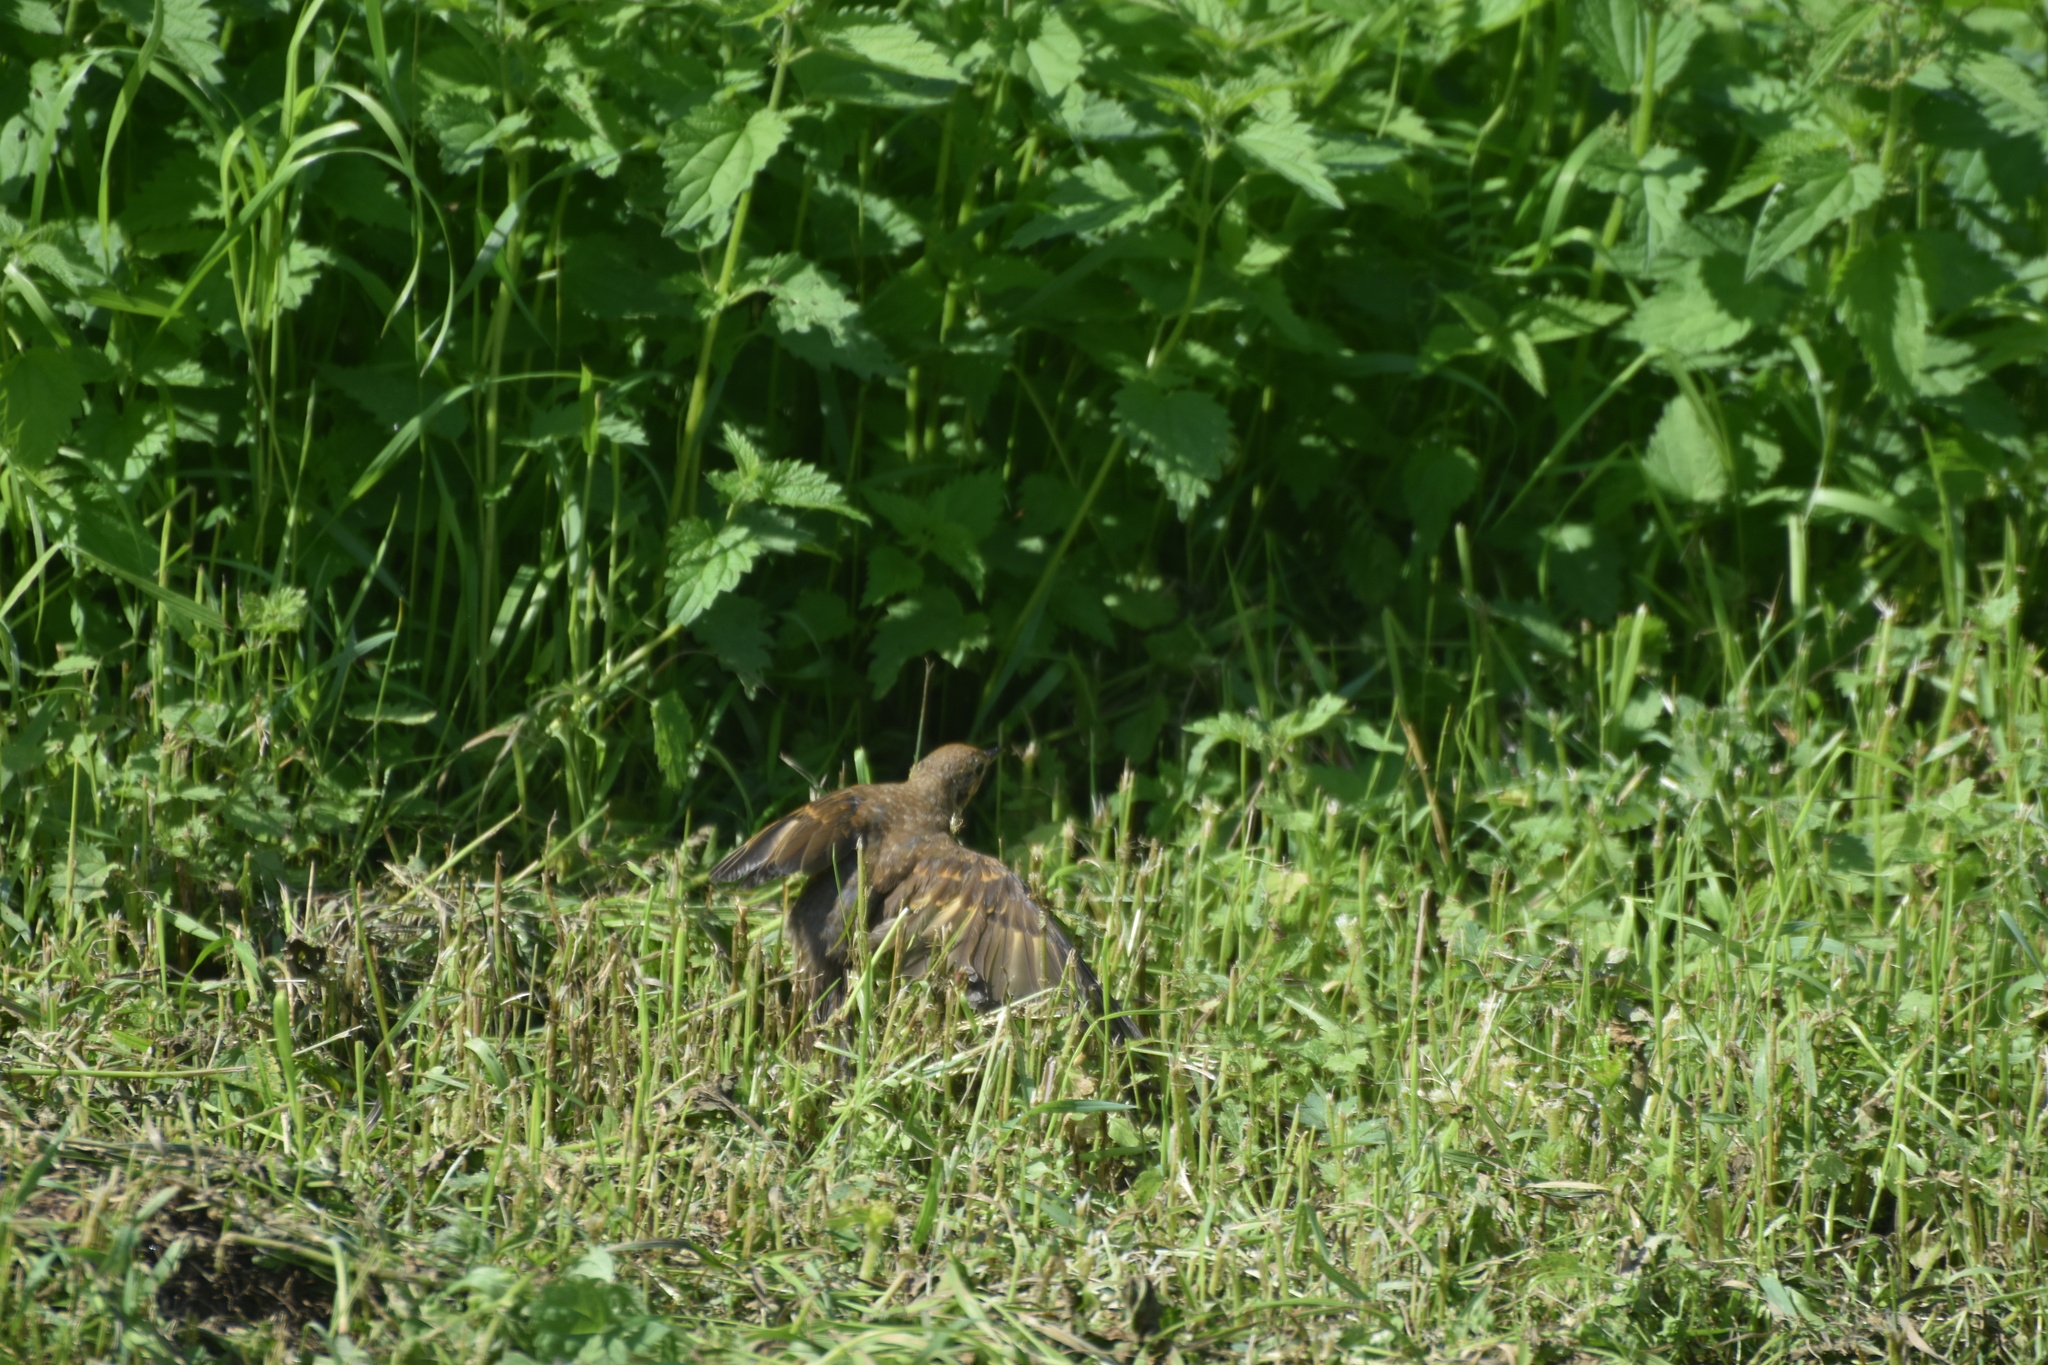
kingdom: Animalia
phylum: Chordata
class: Aves
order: Passeriformes
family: Turdidae
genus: Turdus
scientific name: Turdus philomelos
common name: Song thrush
